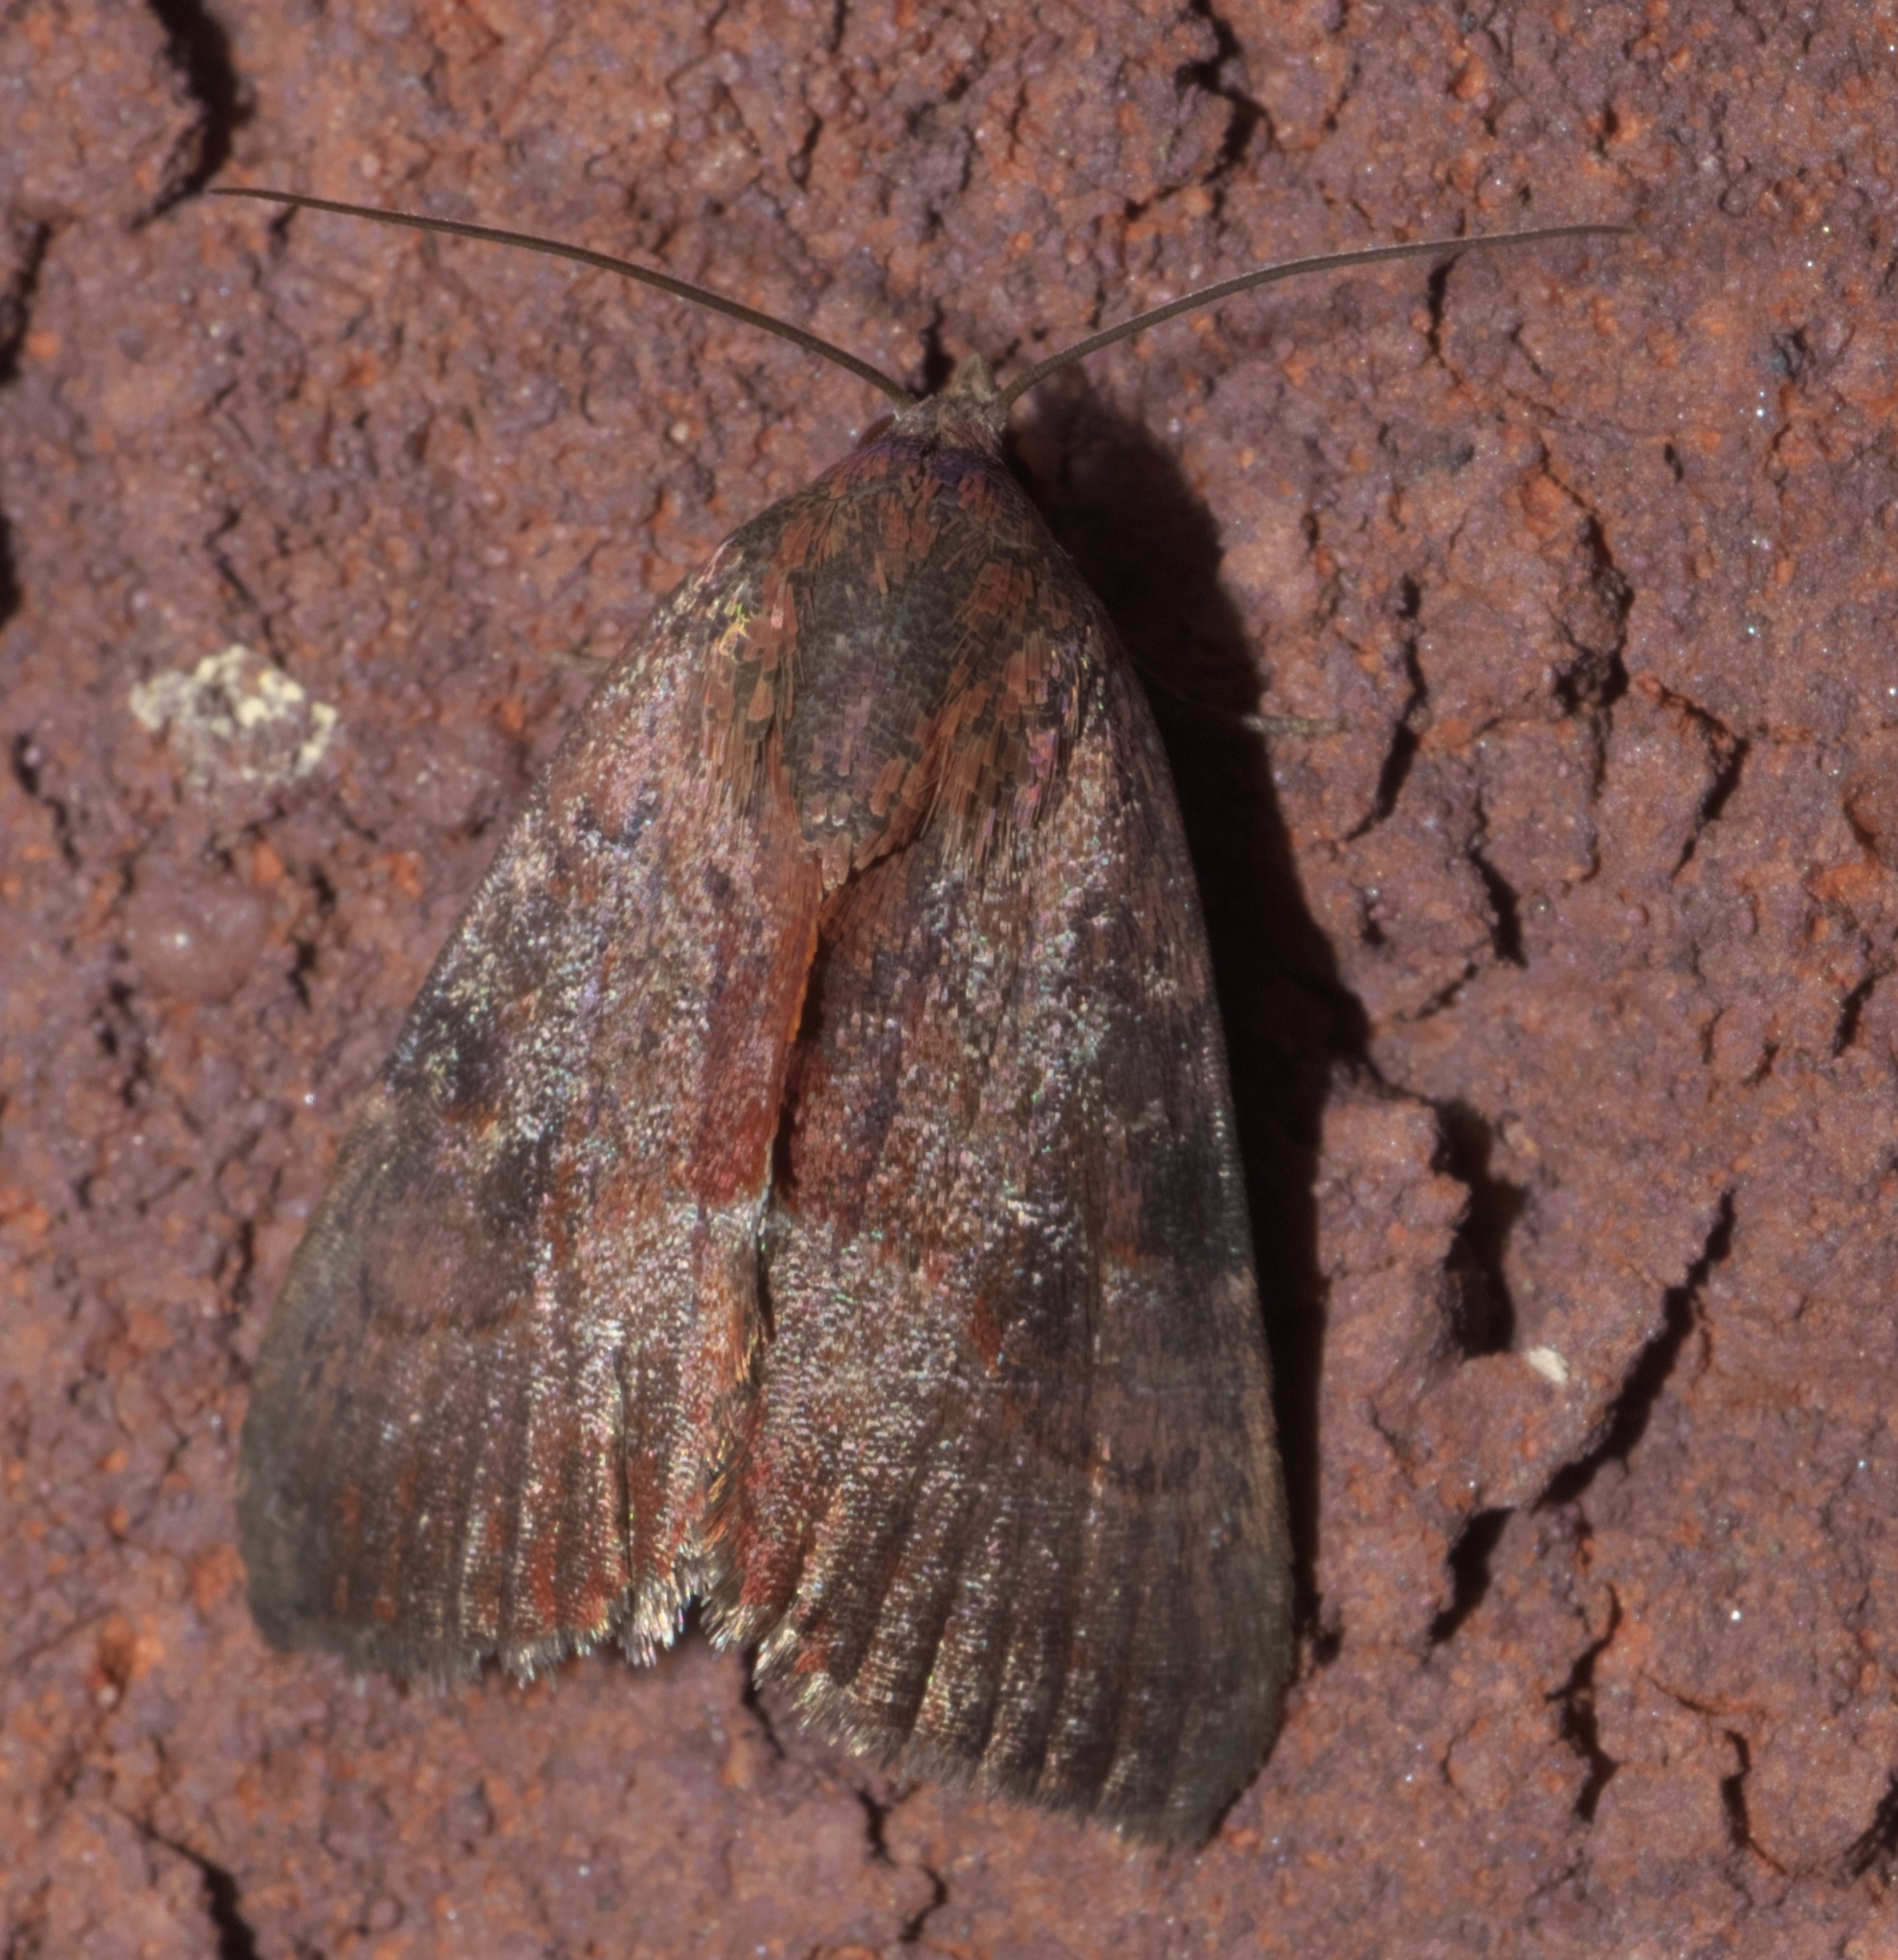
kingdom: Animalia
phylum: Arthropoda
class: Insecta
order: Lepidoptera
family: Noctuidae
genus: Galgula
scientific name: Galgula partita
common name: Wedgeling
